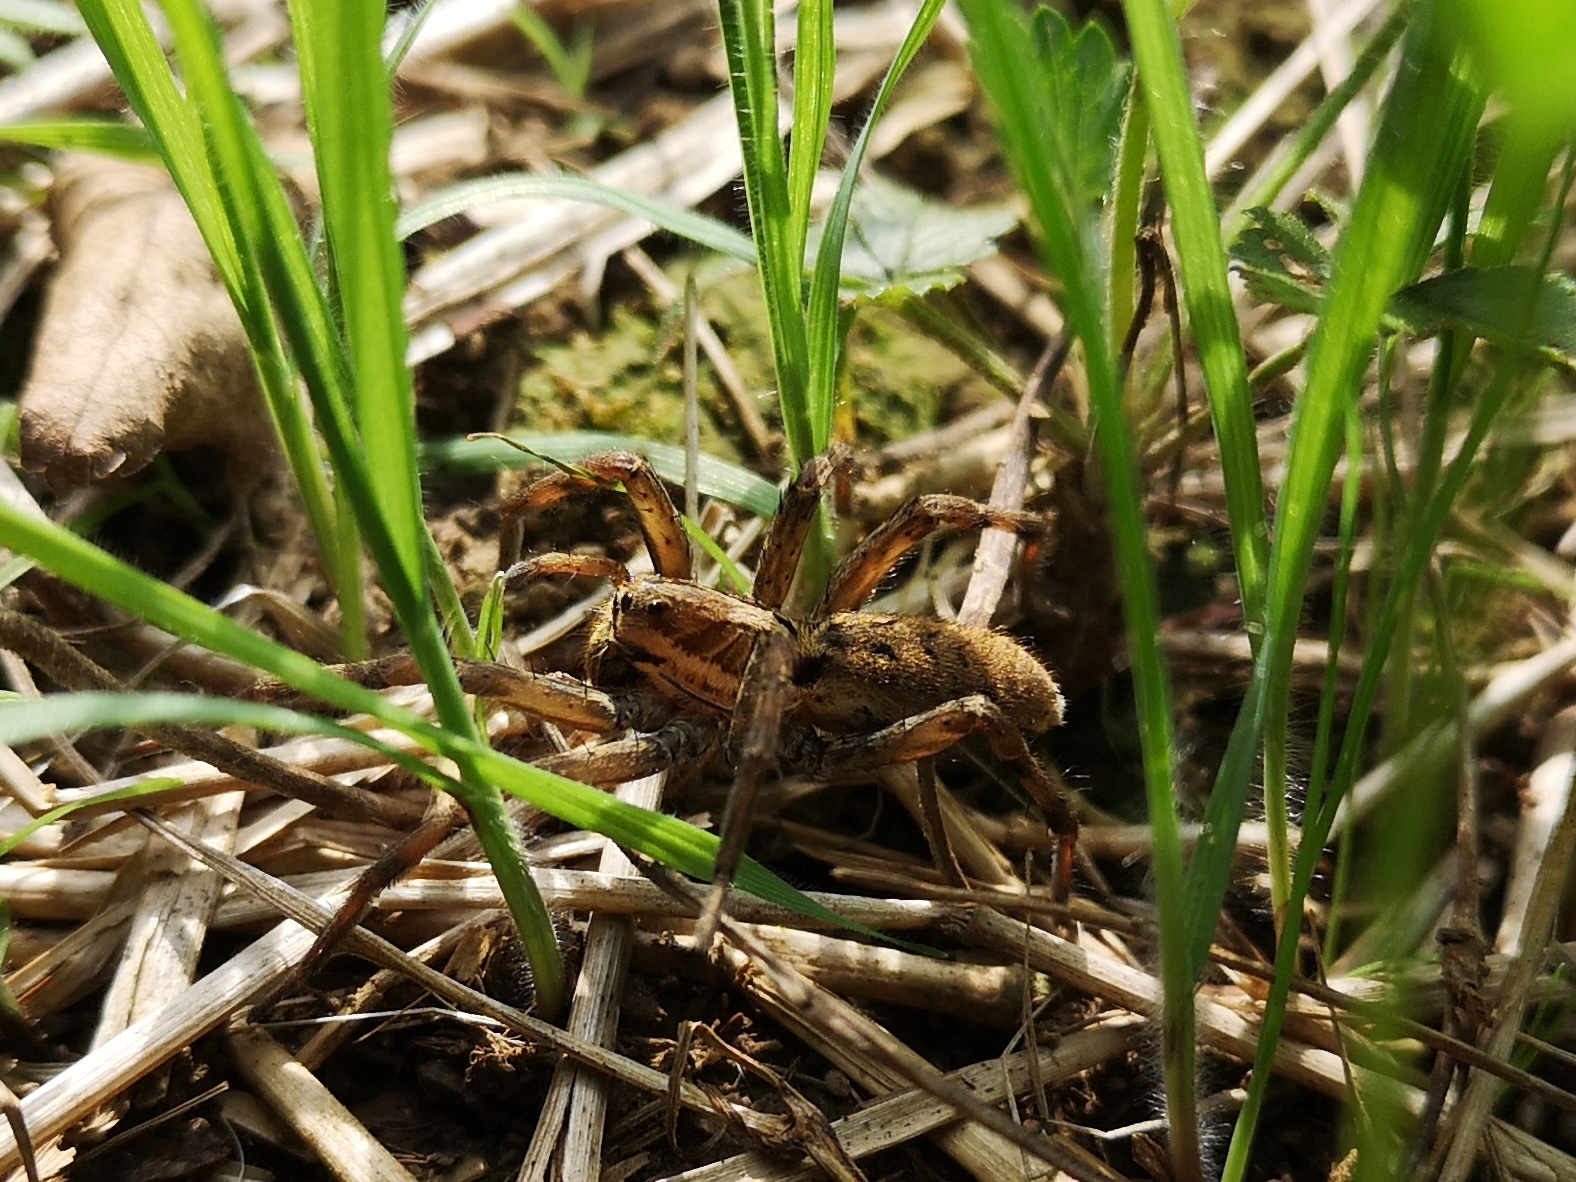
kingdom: Animalia
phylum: Arthropoda
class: Arachnida
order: Araneae
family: Lycosidae
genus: Hogna
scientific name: Hogna radiata
